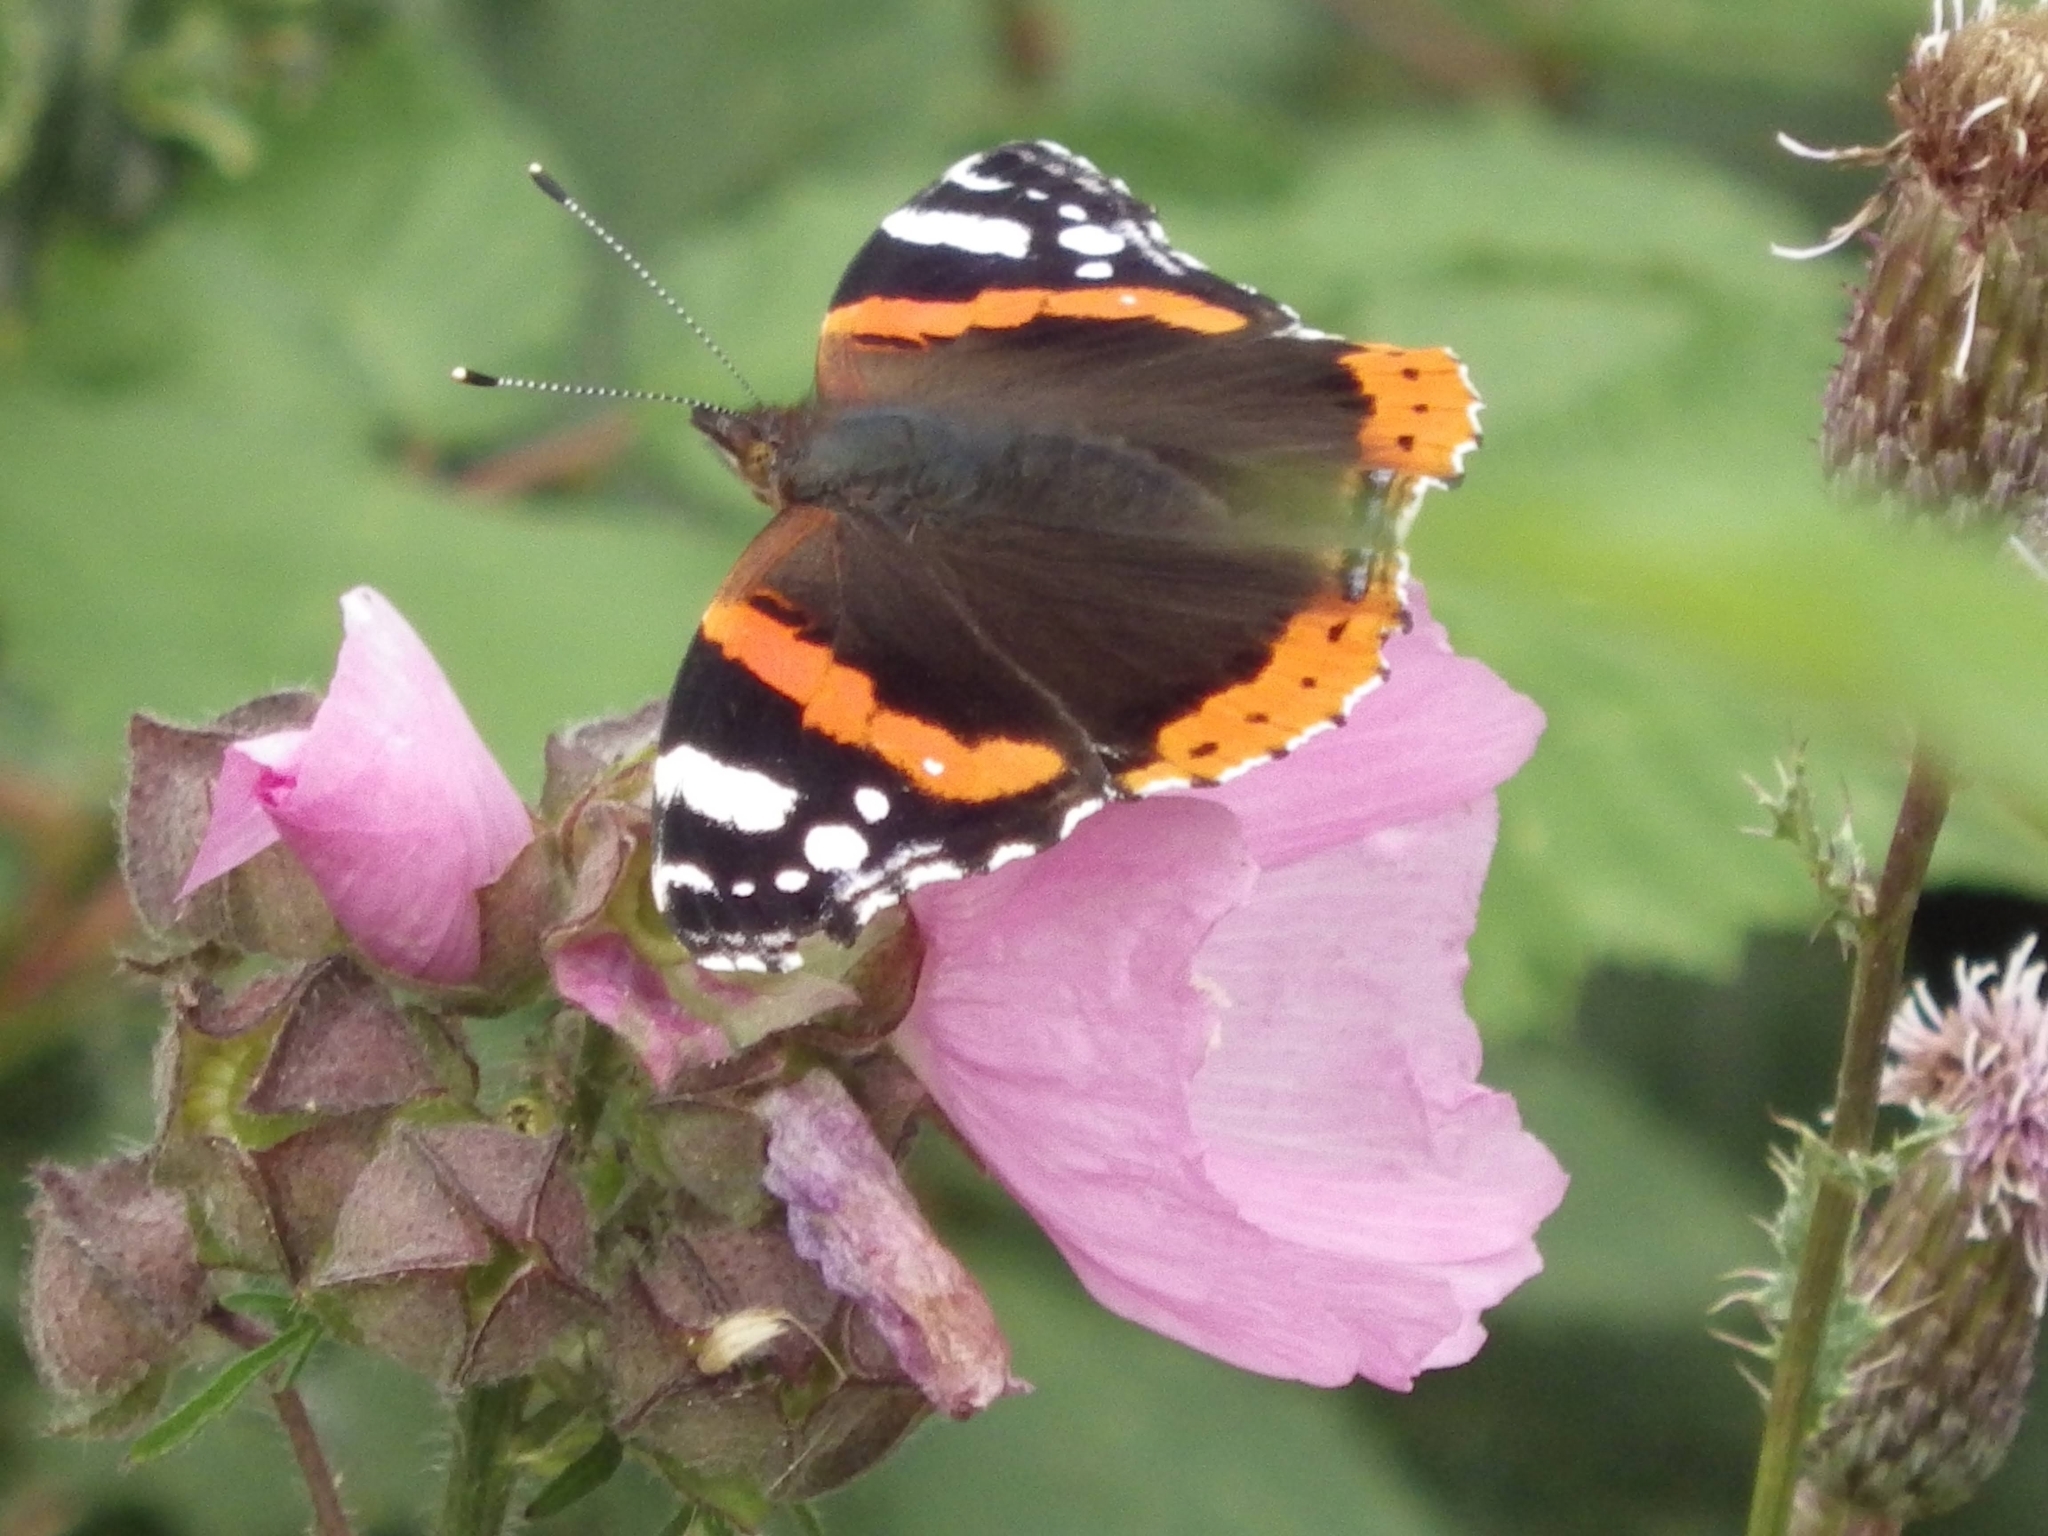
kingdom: Animalia
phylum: Arthropoda
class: Insecta
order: Lepidoptera
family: Nymphalidae
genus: Vanessa
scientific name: Vanessa atalanta
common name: Red admiral
